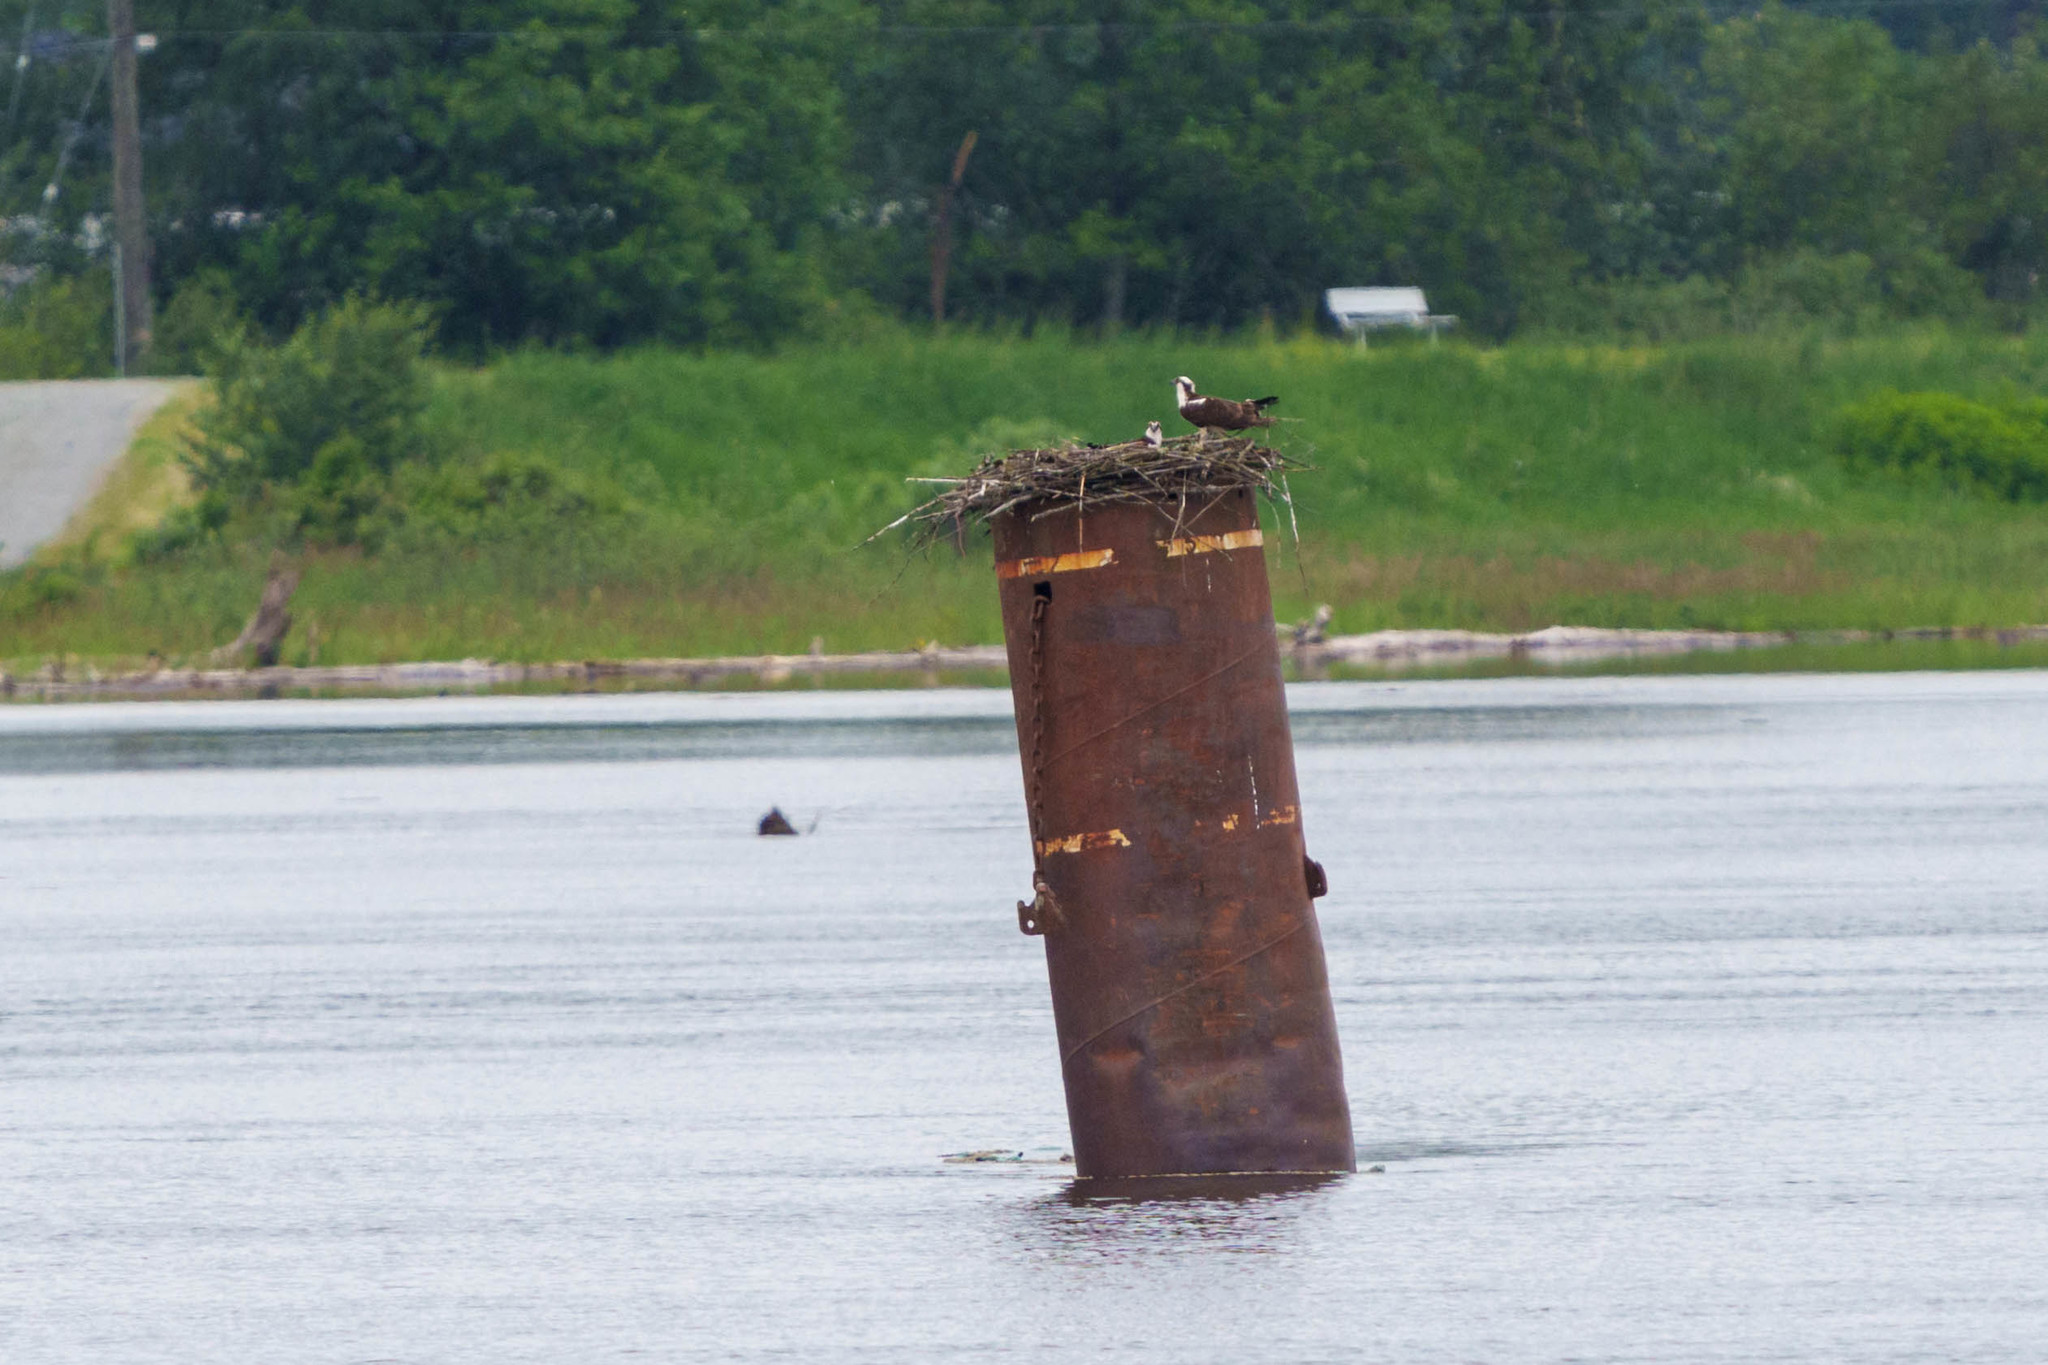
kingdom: Animalia
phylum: Chordata
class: Aves
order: Accipitriformes
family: Pandionidae
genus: Pandion
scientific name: Pandion haliaetus
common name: Osprey
